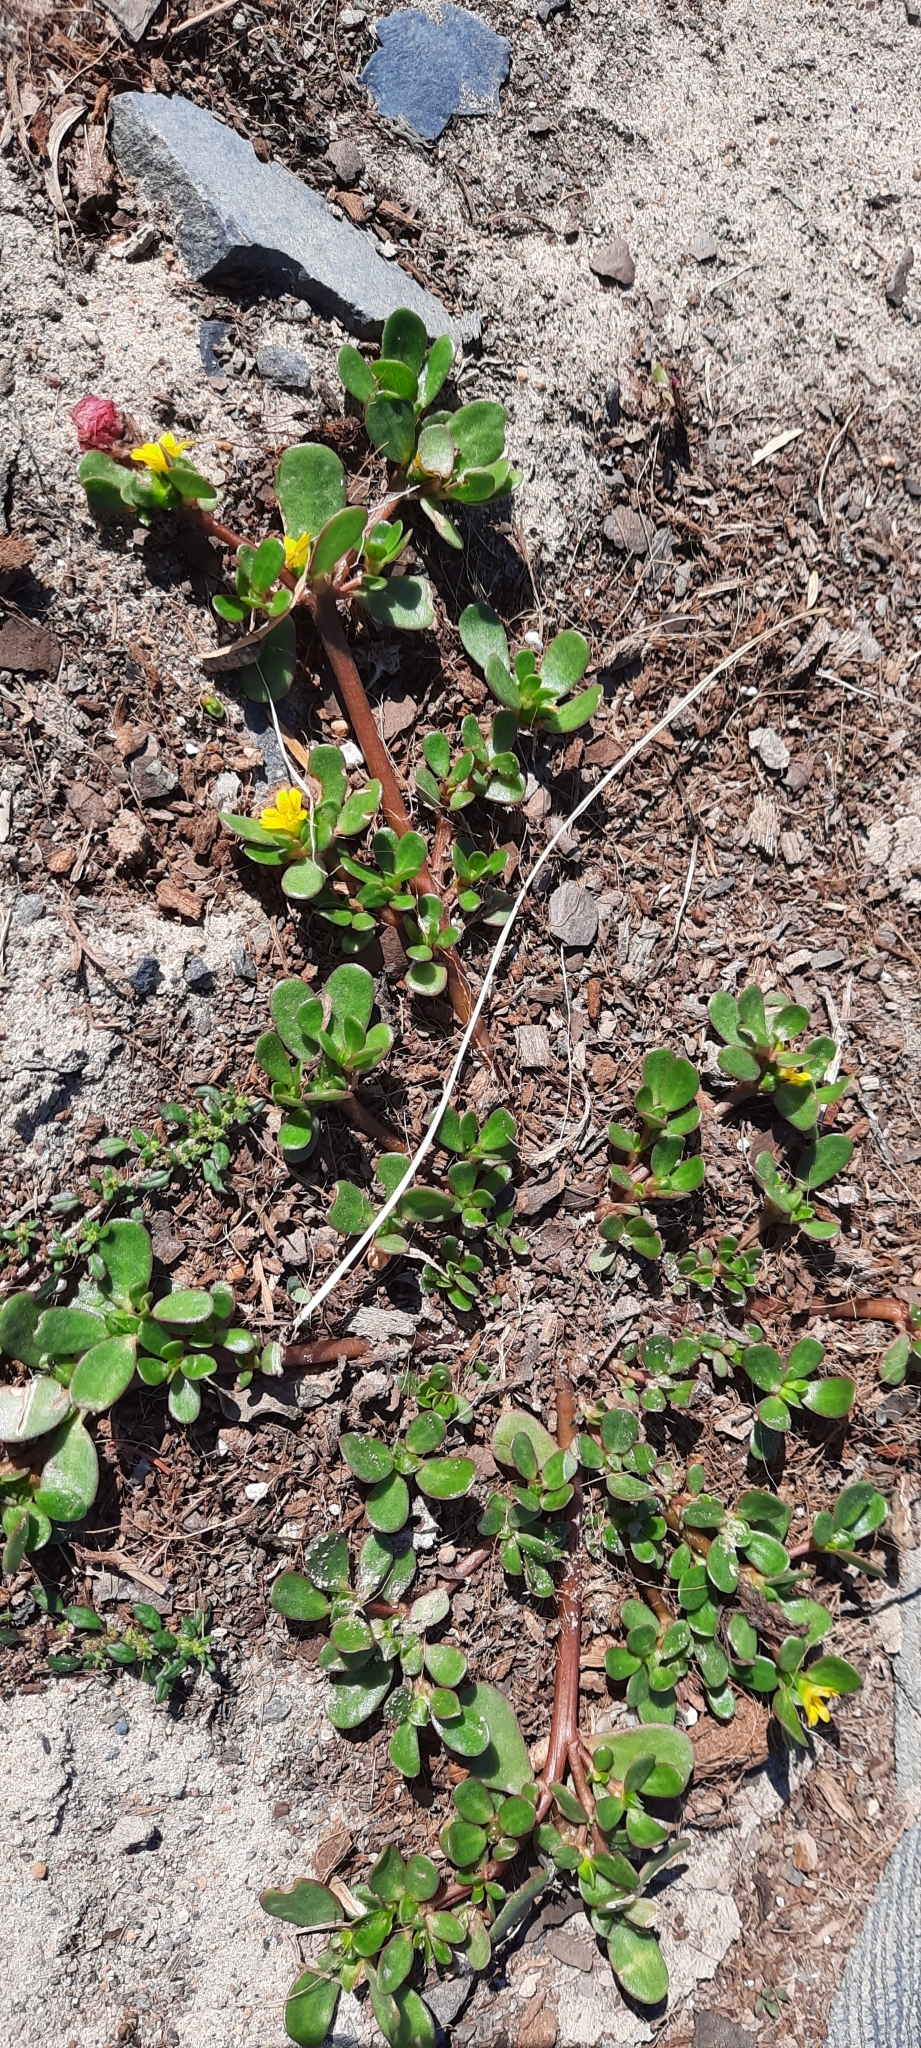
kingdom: Plantae
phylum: Tracheophyta
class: Magnoliopsida
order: Caryophyllales
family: Portulacaceae
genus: Portulaca
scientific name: Portulaca oleracea
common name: Common purslane
